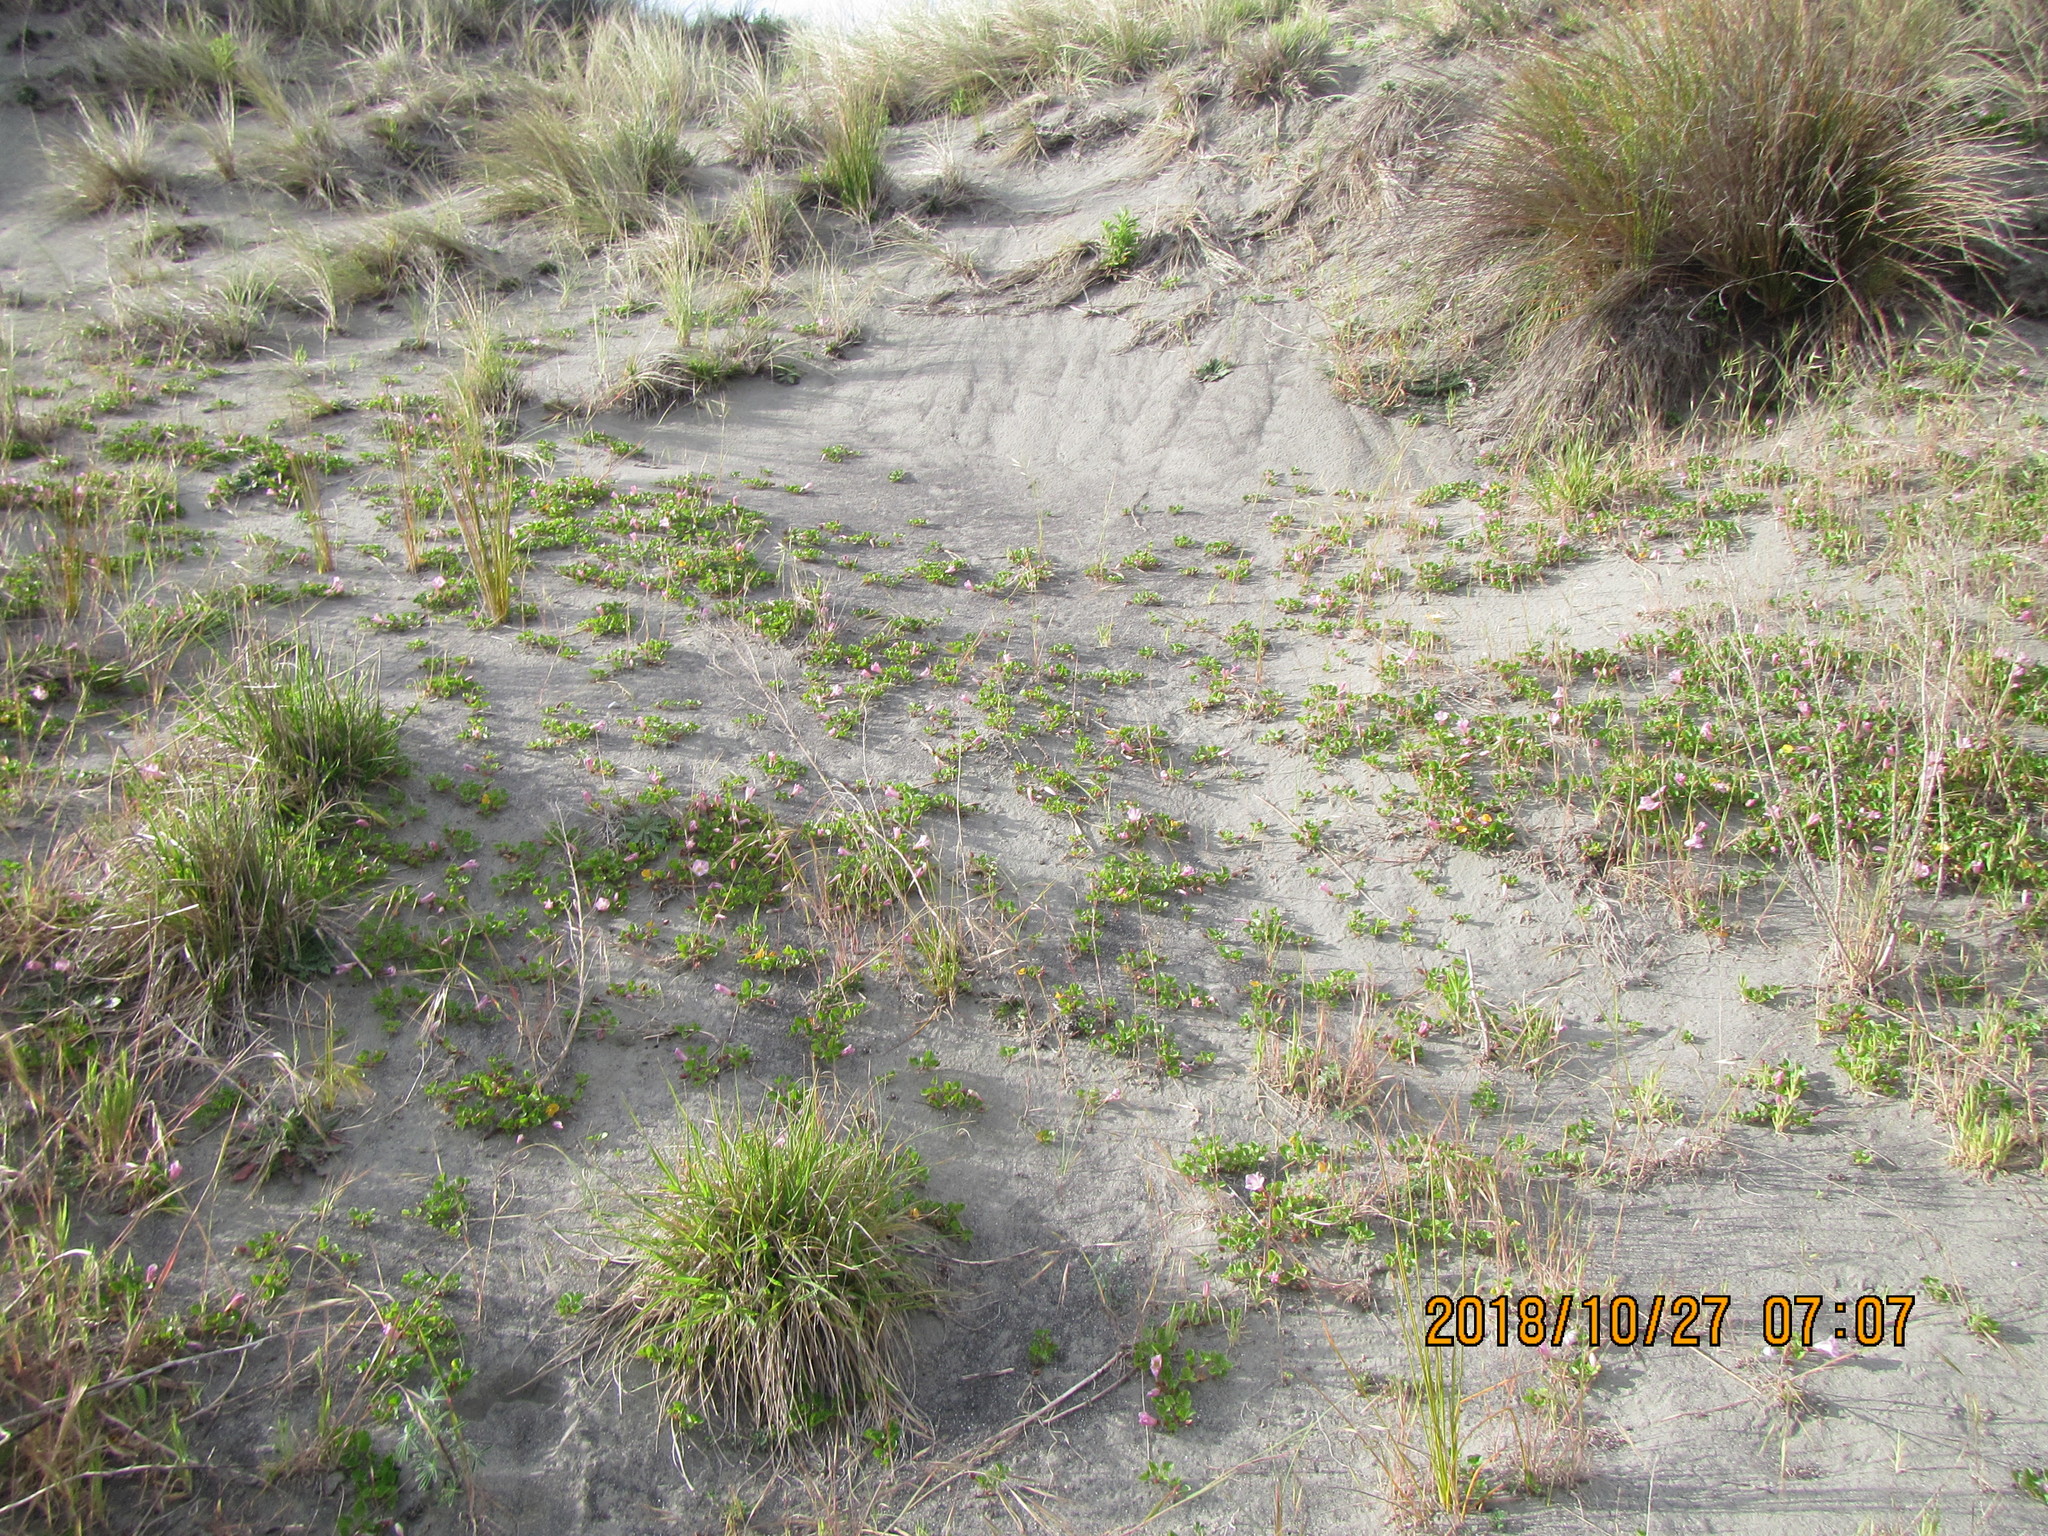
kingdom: Plantae
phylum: Tracheophyta
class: Magnoliopsida
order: Solanales
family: Convolvulaceae
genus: Calystegia
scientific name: Calystegia soldanella
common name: Sea bindweed
